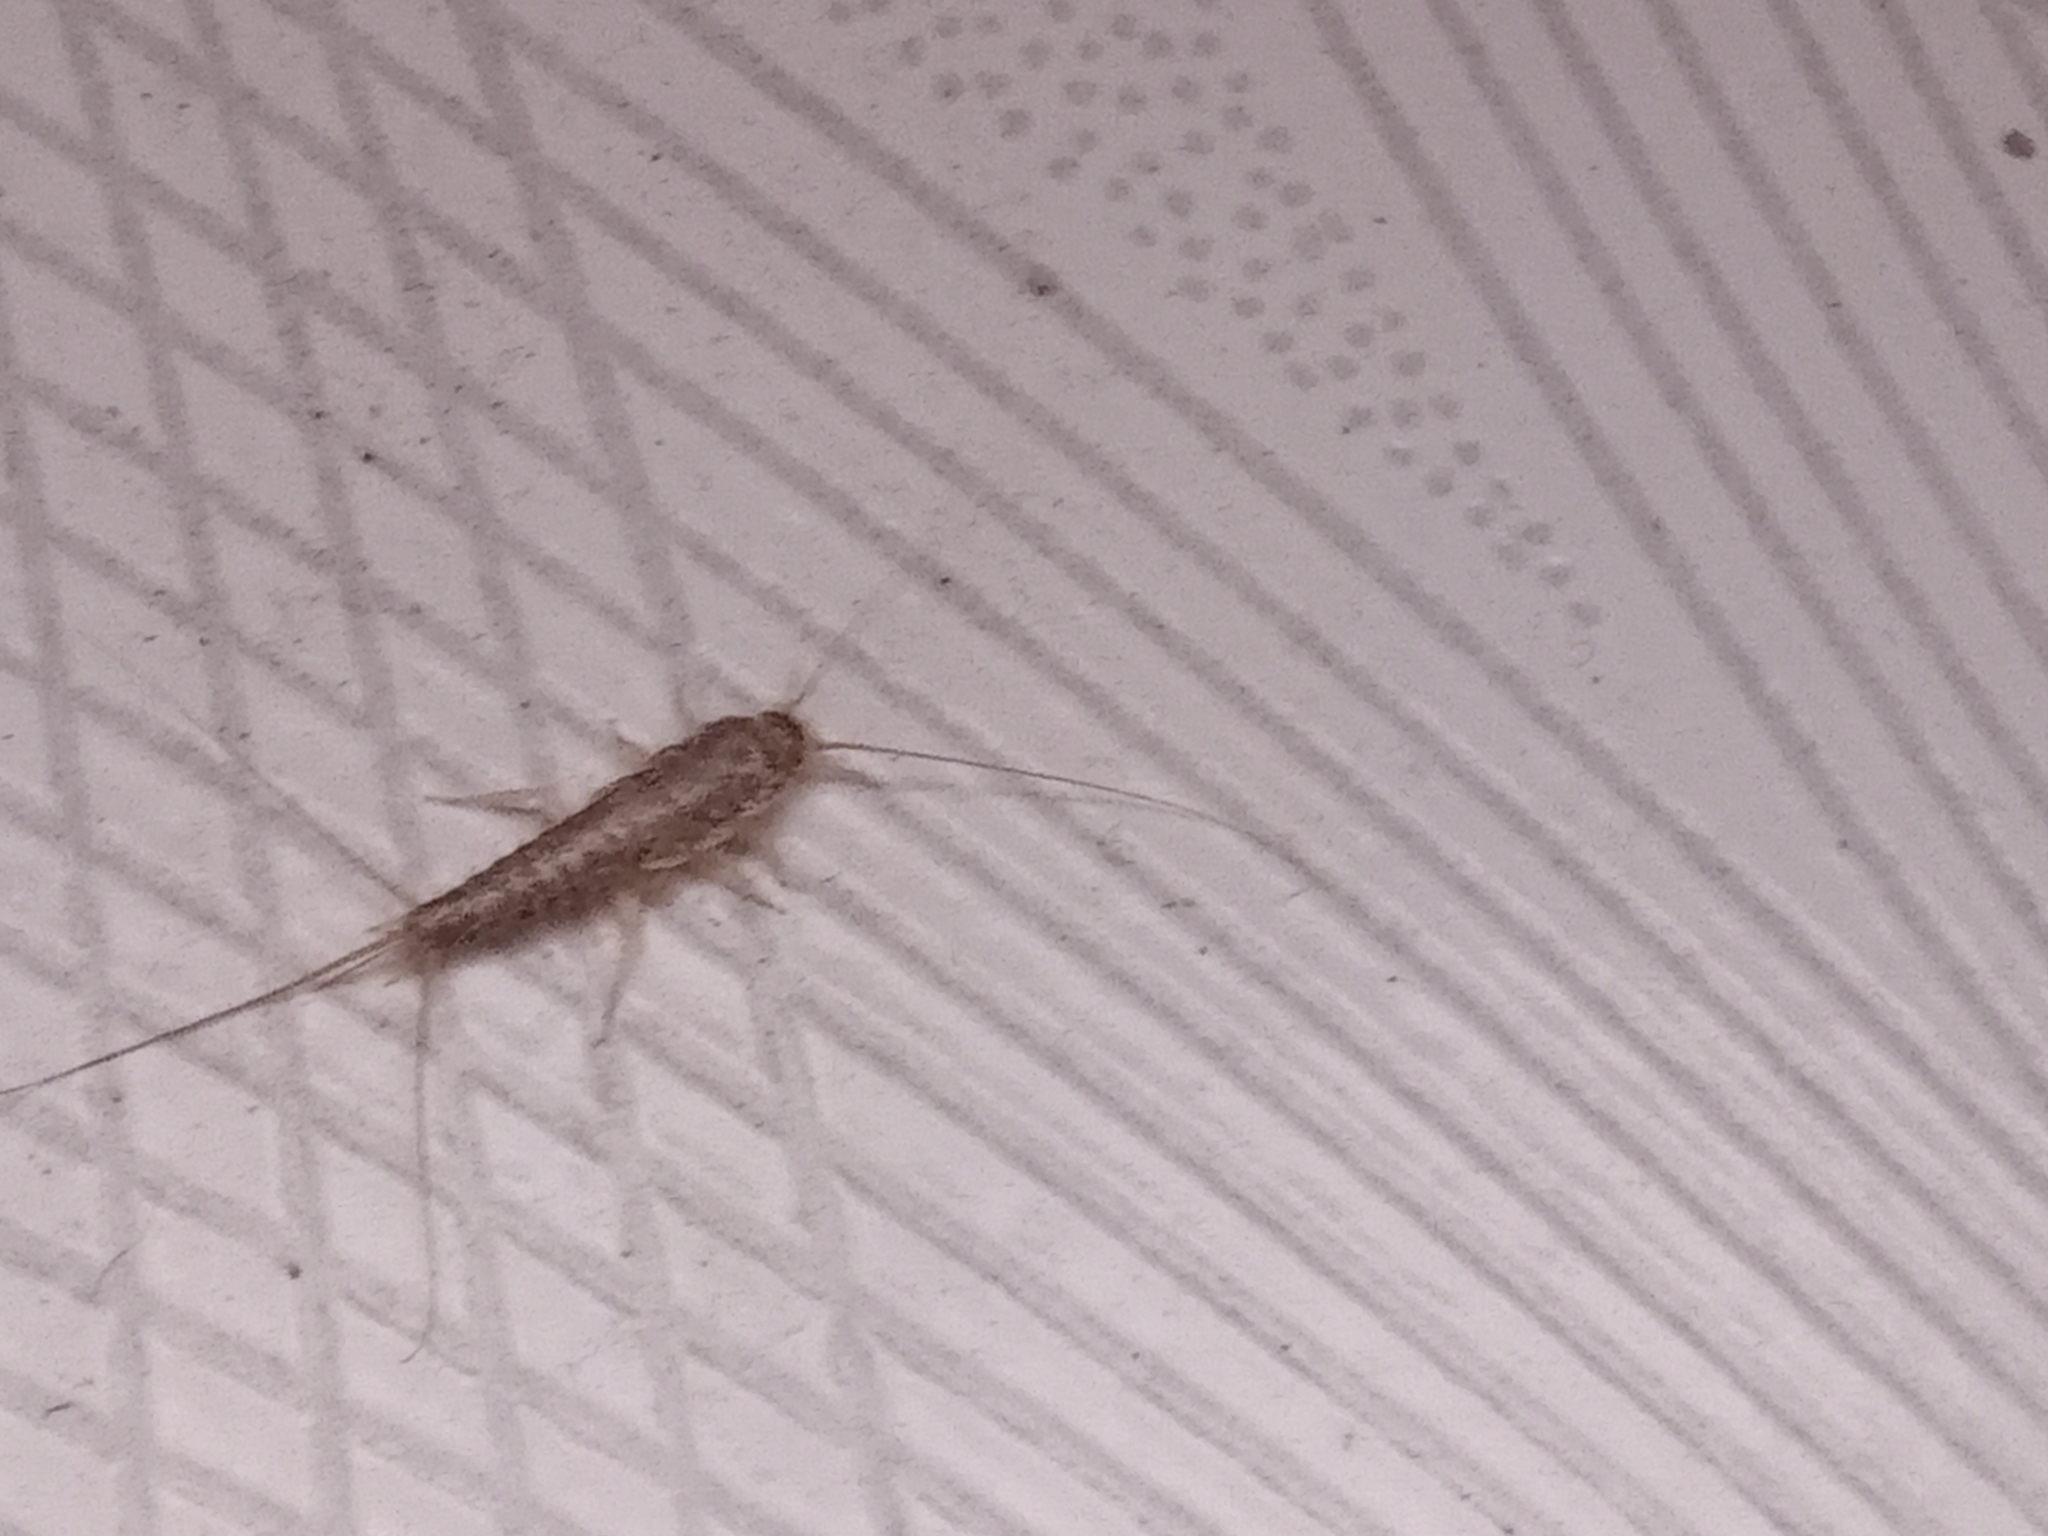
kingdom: Animalia
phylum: Arthropoda
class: Insecta
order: Zygentoma
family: Lepismatidae
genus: Ctenolepisma
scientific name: Ctenolepisma longicaudatum
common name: Silverfish
